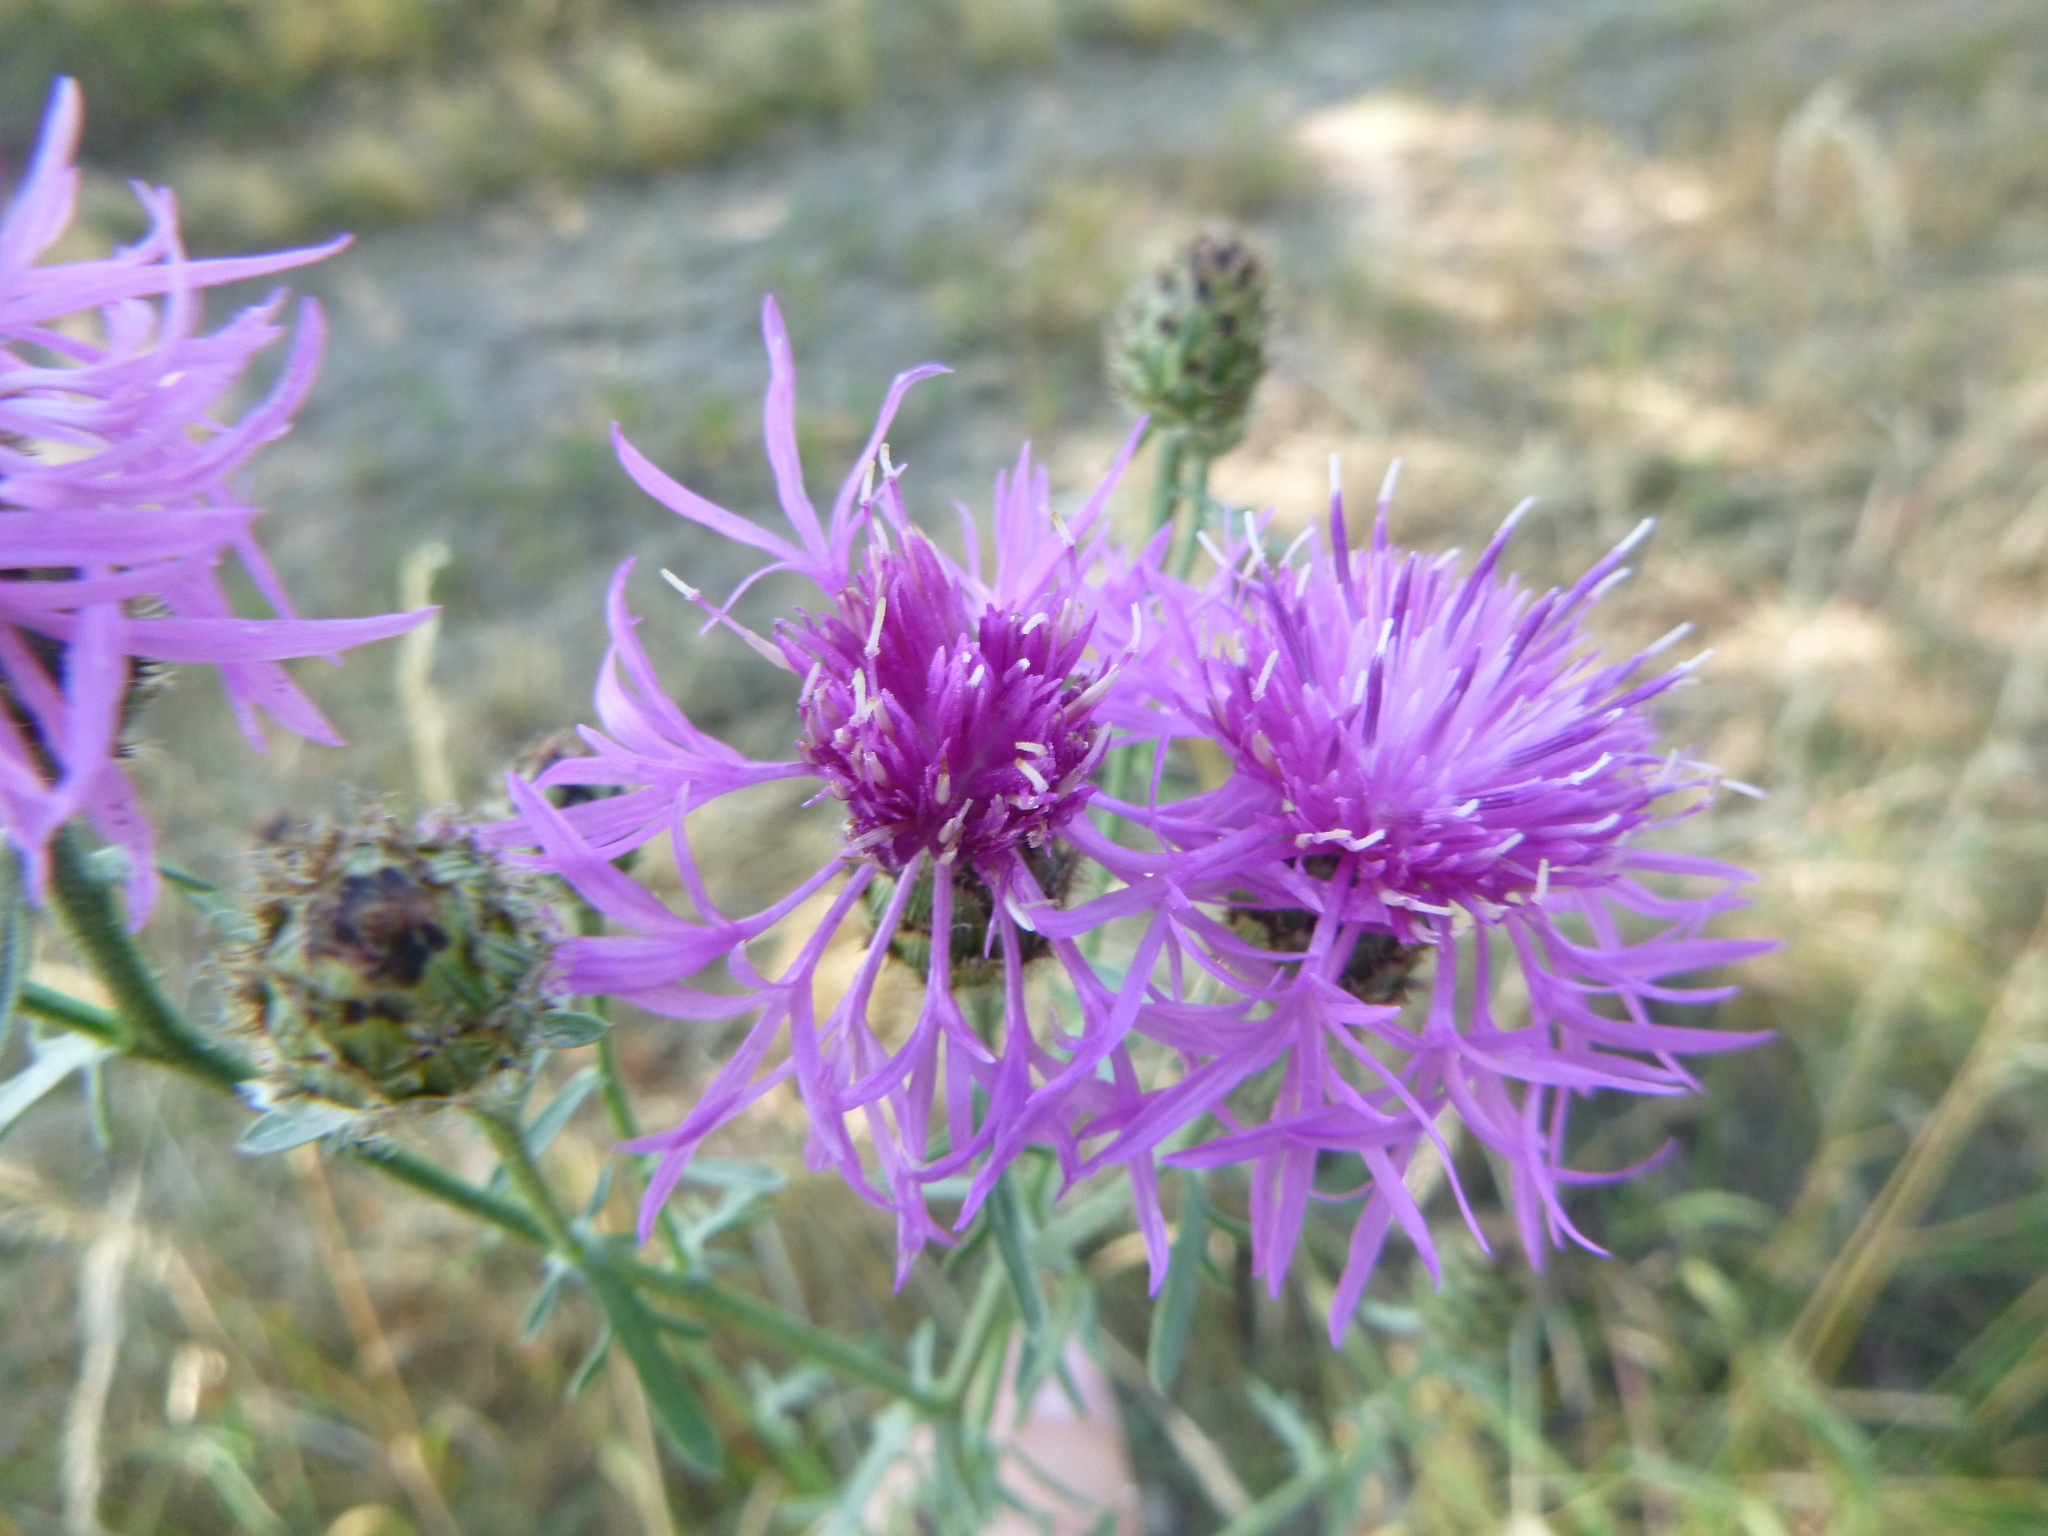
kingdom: Plantae
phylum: Tracheophyta
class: Magnoliopsida
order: Asterales
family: Asteraceae
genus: Centaurea
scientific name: Centaurea stoebe
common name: Spotted knapweed
